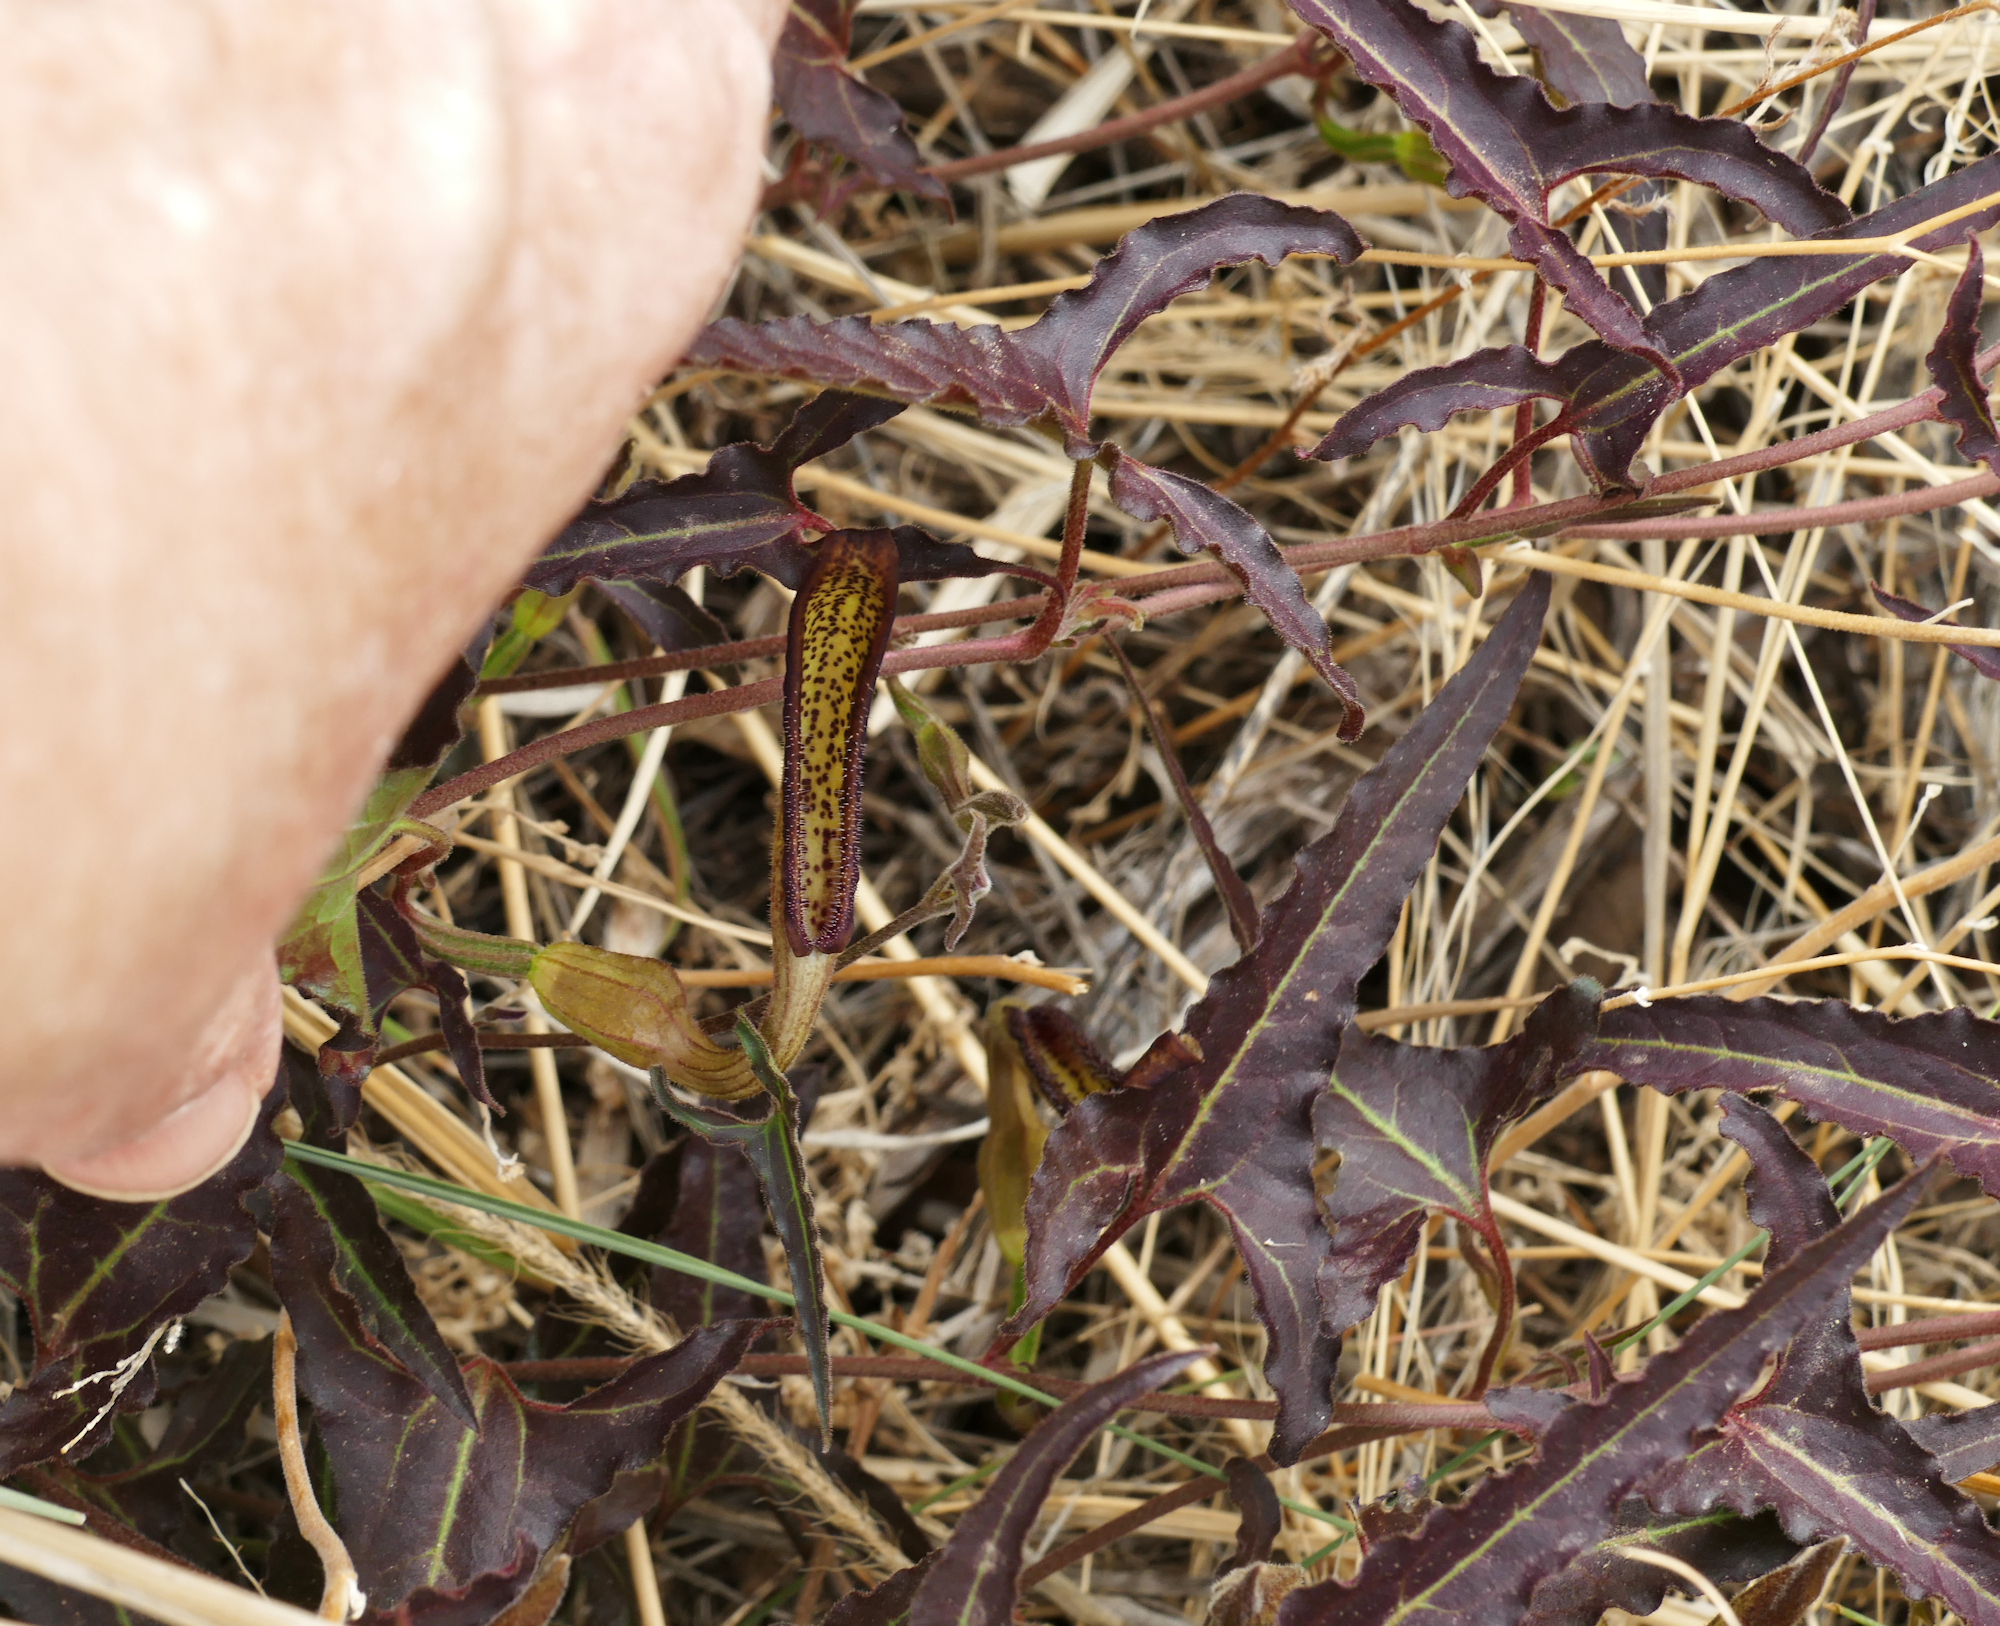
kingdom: Plantae
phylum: Tracheophyta
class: Magnoliopsida
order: Piperales
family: Aristolochiaceae
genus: Aristolochia
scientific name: Aristolochia watsonii
